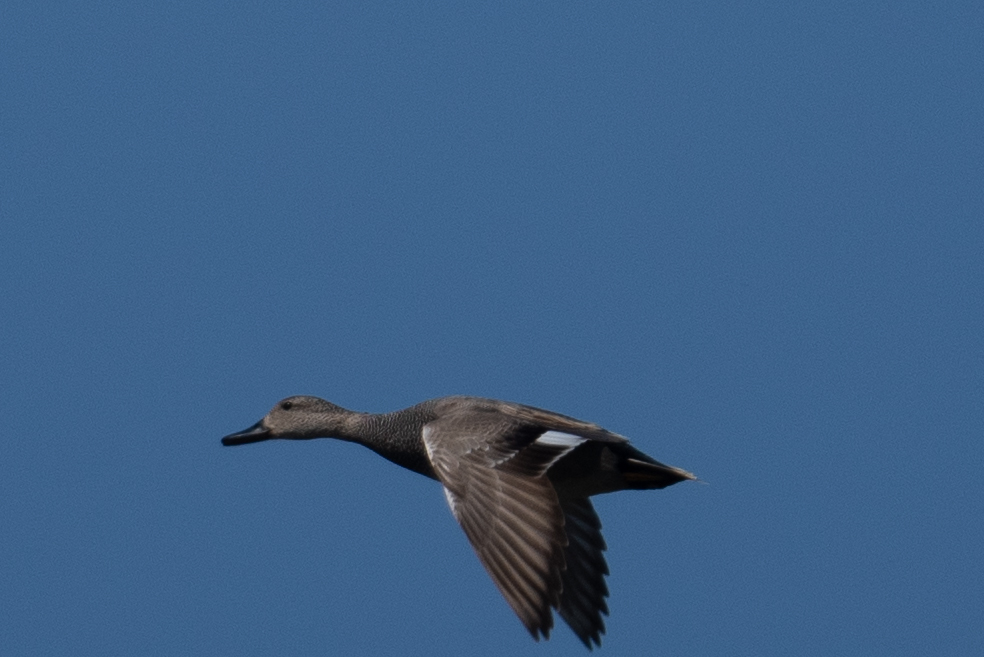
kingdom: Animalia
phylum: Chordata
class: Aves
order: Anseriformes
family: Anatidae
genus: Mareca
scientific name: Mareca strepera
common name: Gadwall
